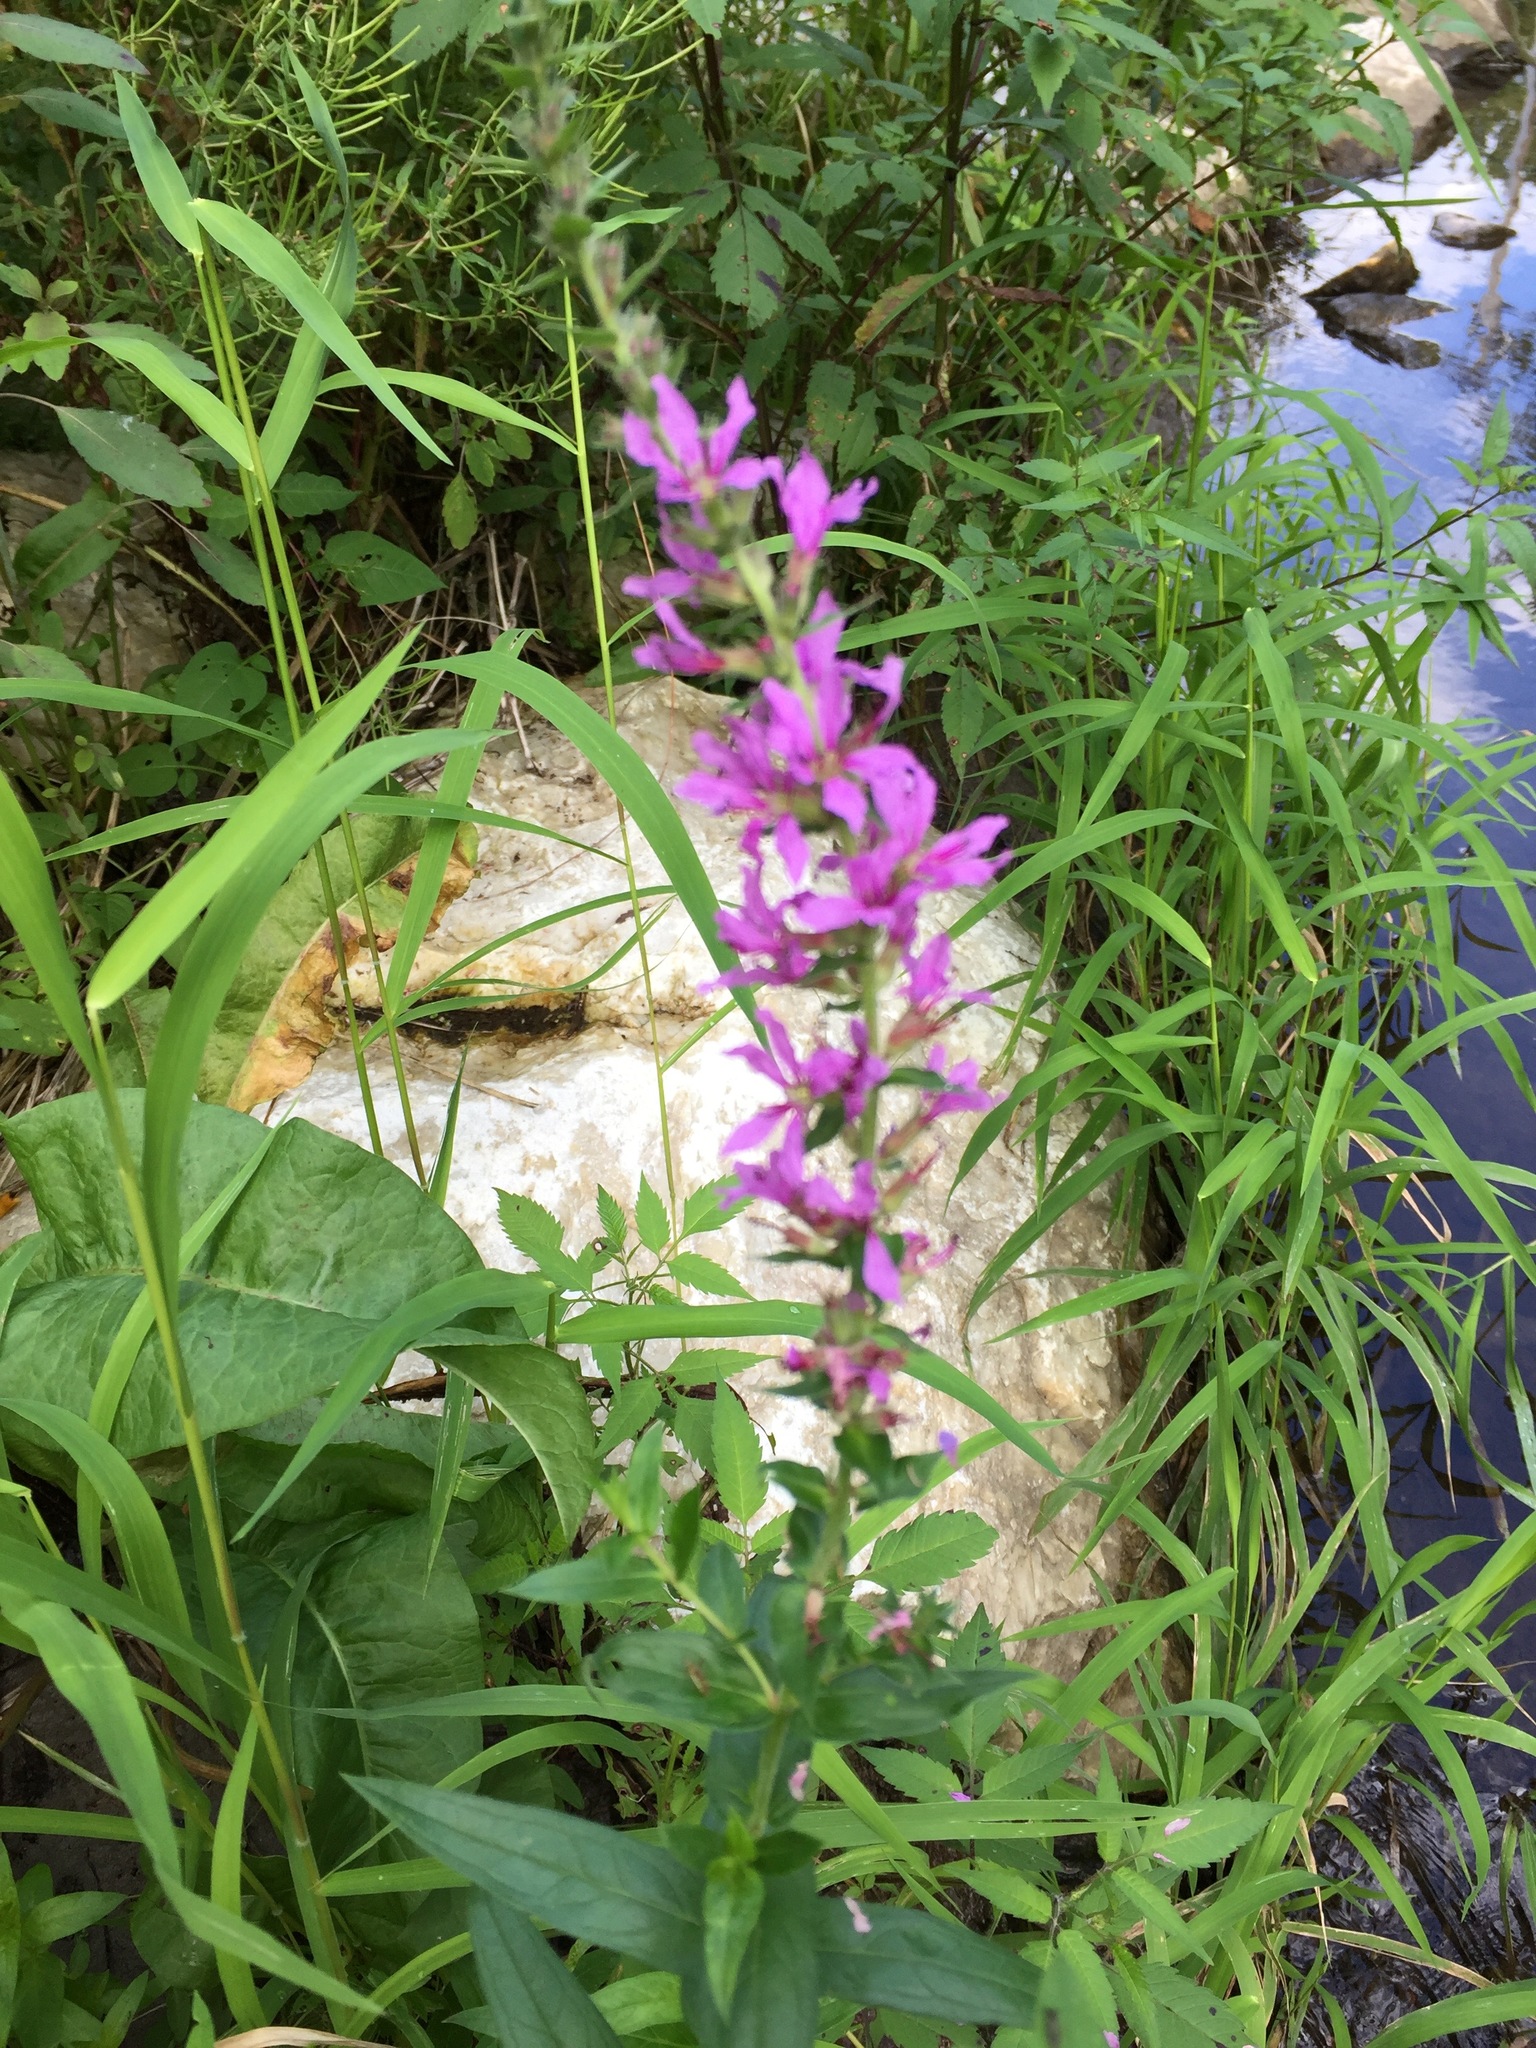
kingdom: Plantae
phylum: Tracheophyta
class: Magnoliopsida
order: Myrtales
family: Lythraceae
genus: Lythrum
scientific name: Lythrum salicaria
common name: Purple loosestrife
